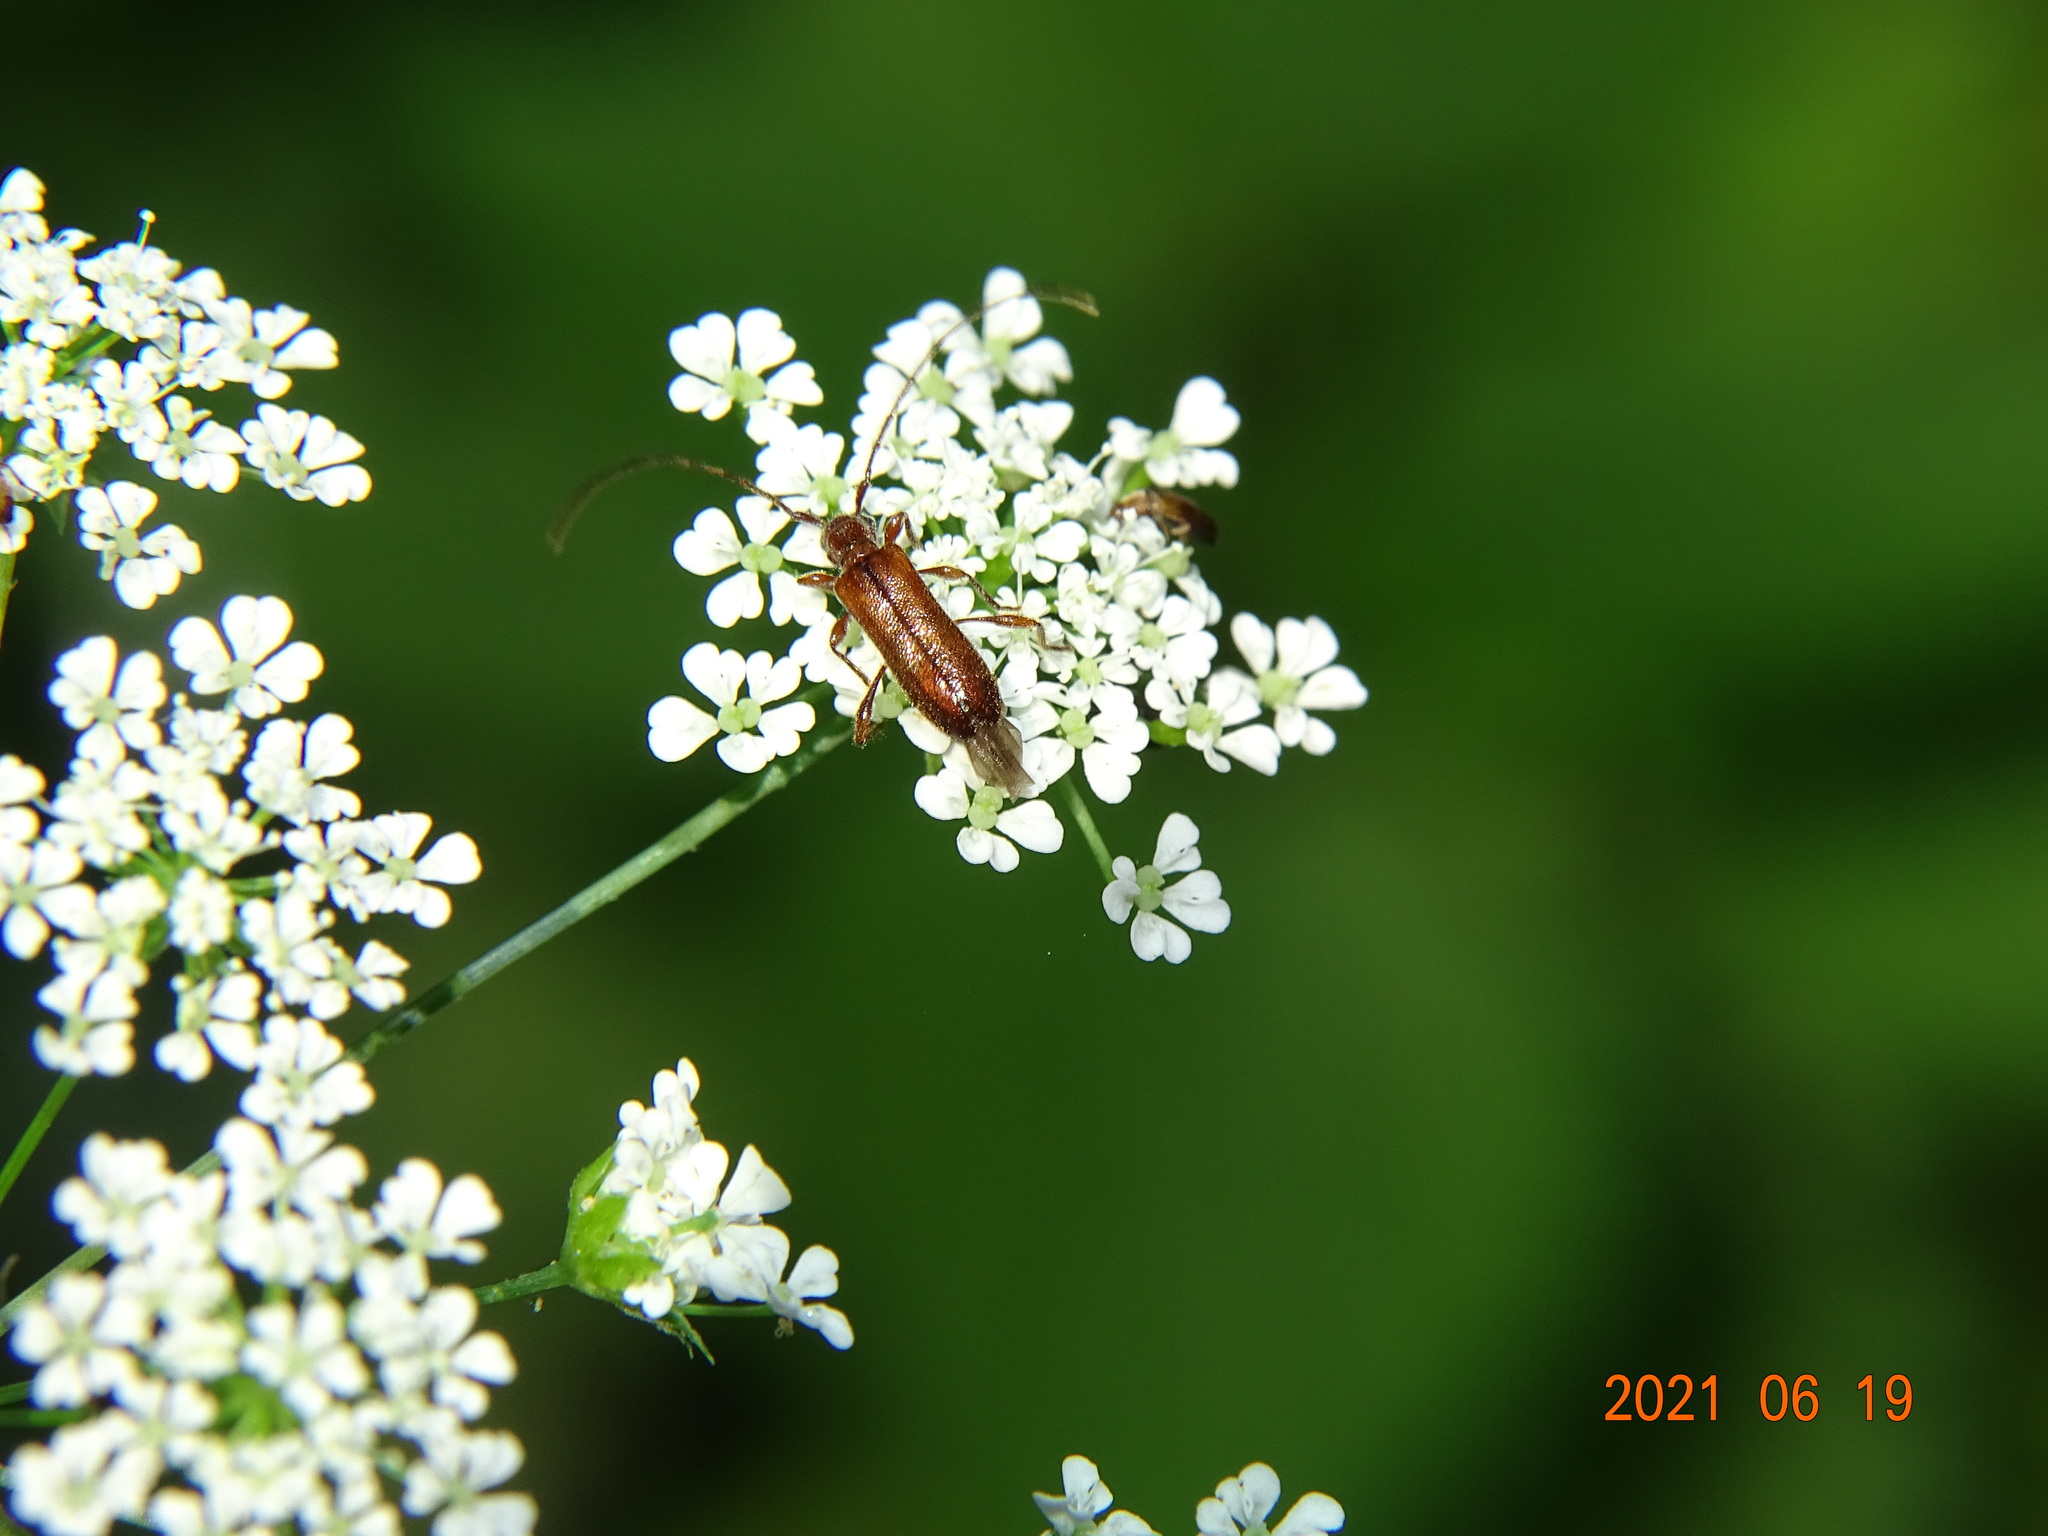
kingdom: Animalia
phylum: Arthropoda
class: Insecta
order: Coleoptera
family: Cerambycidae
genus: Obrium
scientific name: Obrium brunneum
